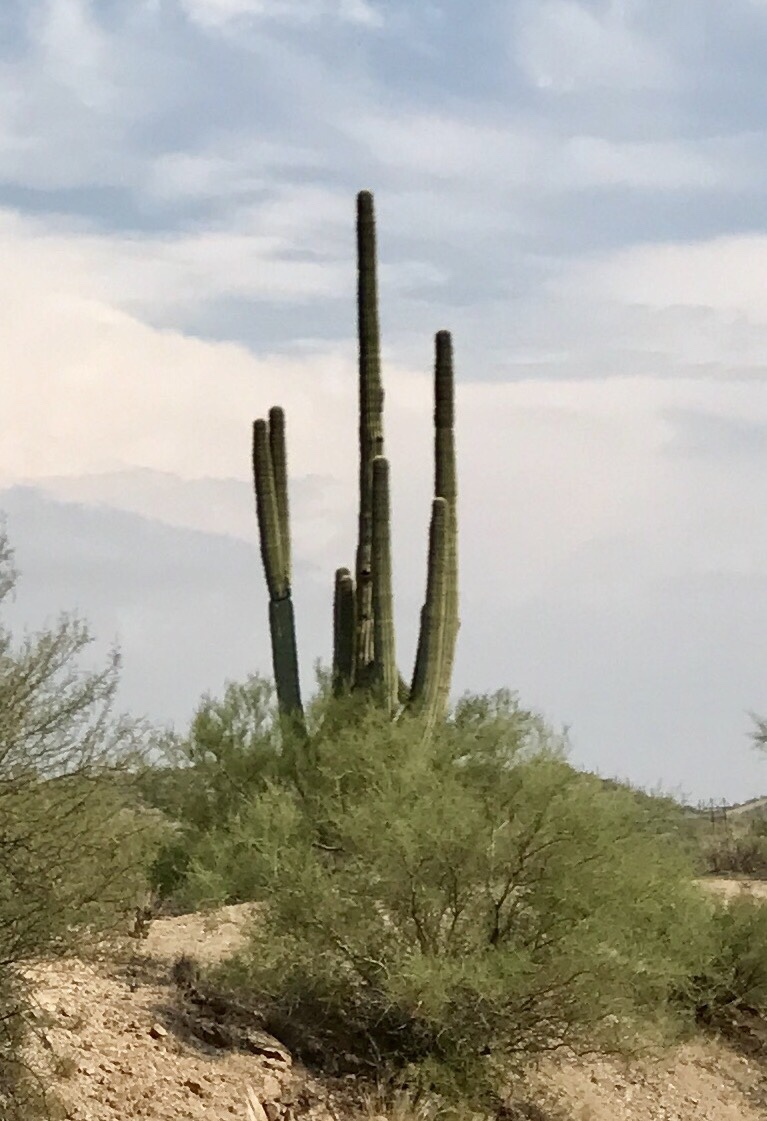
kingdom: Plantae
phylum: Tracheophyta
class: Magnoliopsida
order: Caryophyllales
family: Cactaceae
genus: Carnegiea
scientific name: Carnegiea gigantea
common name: Saguaro
